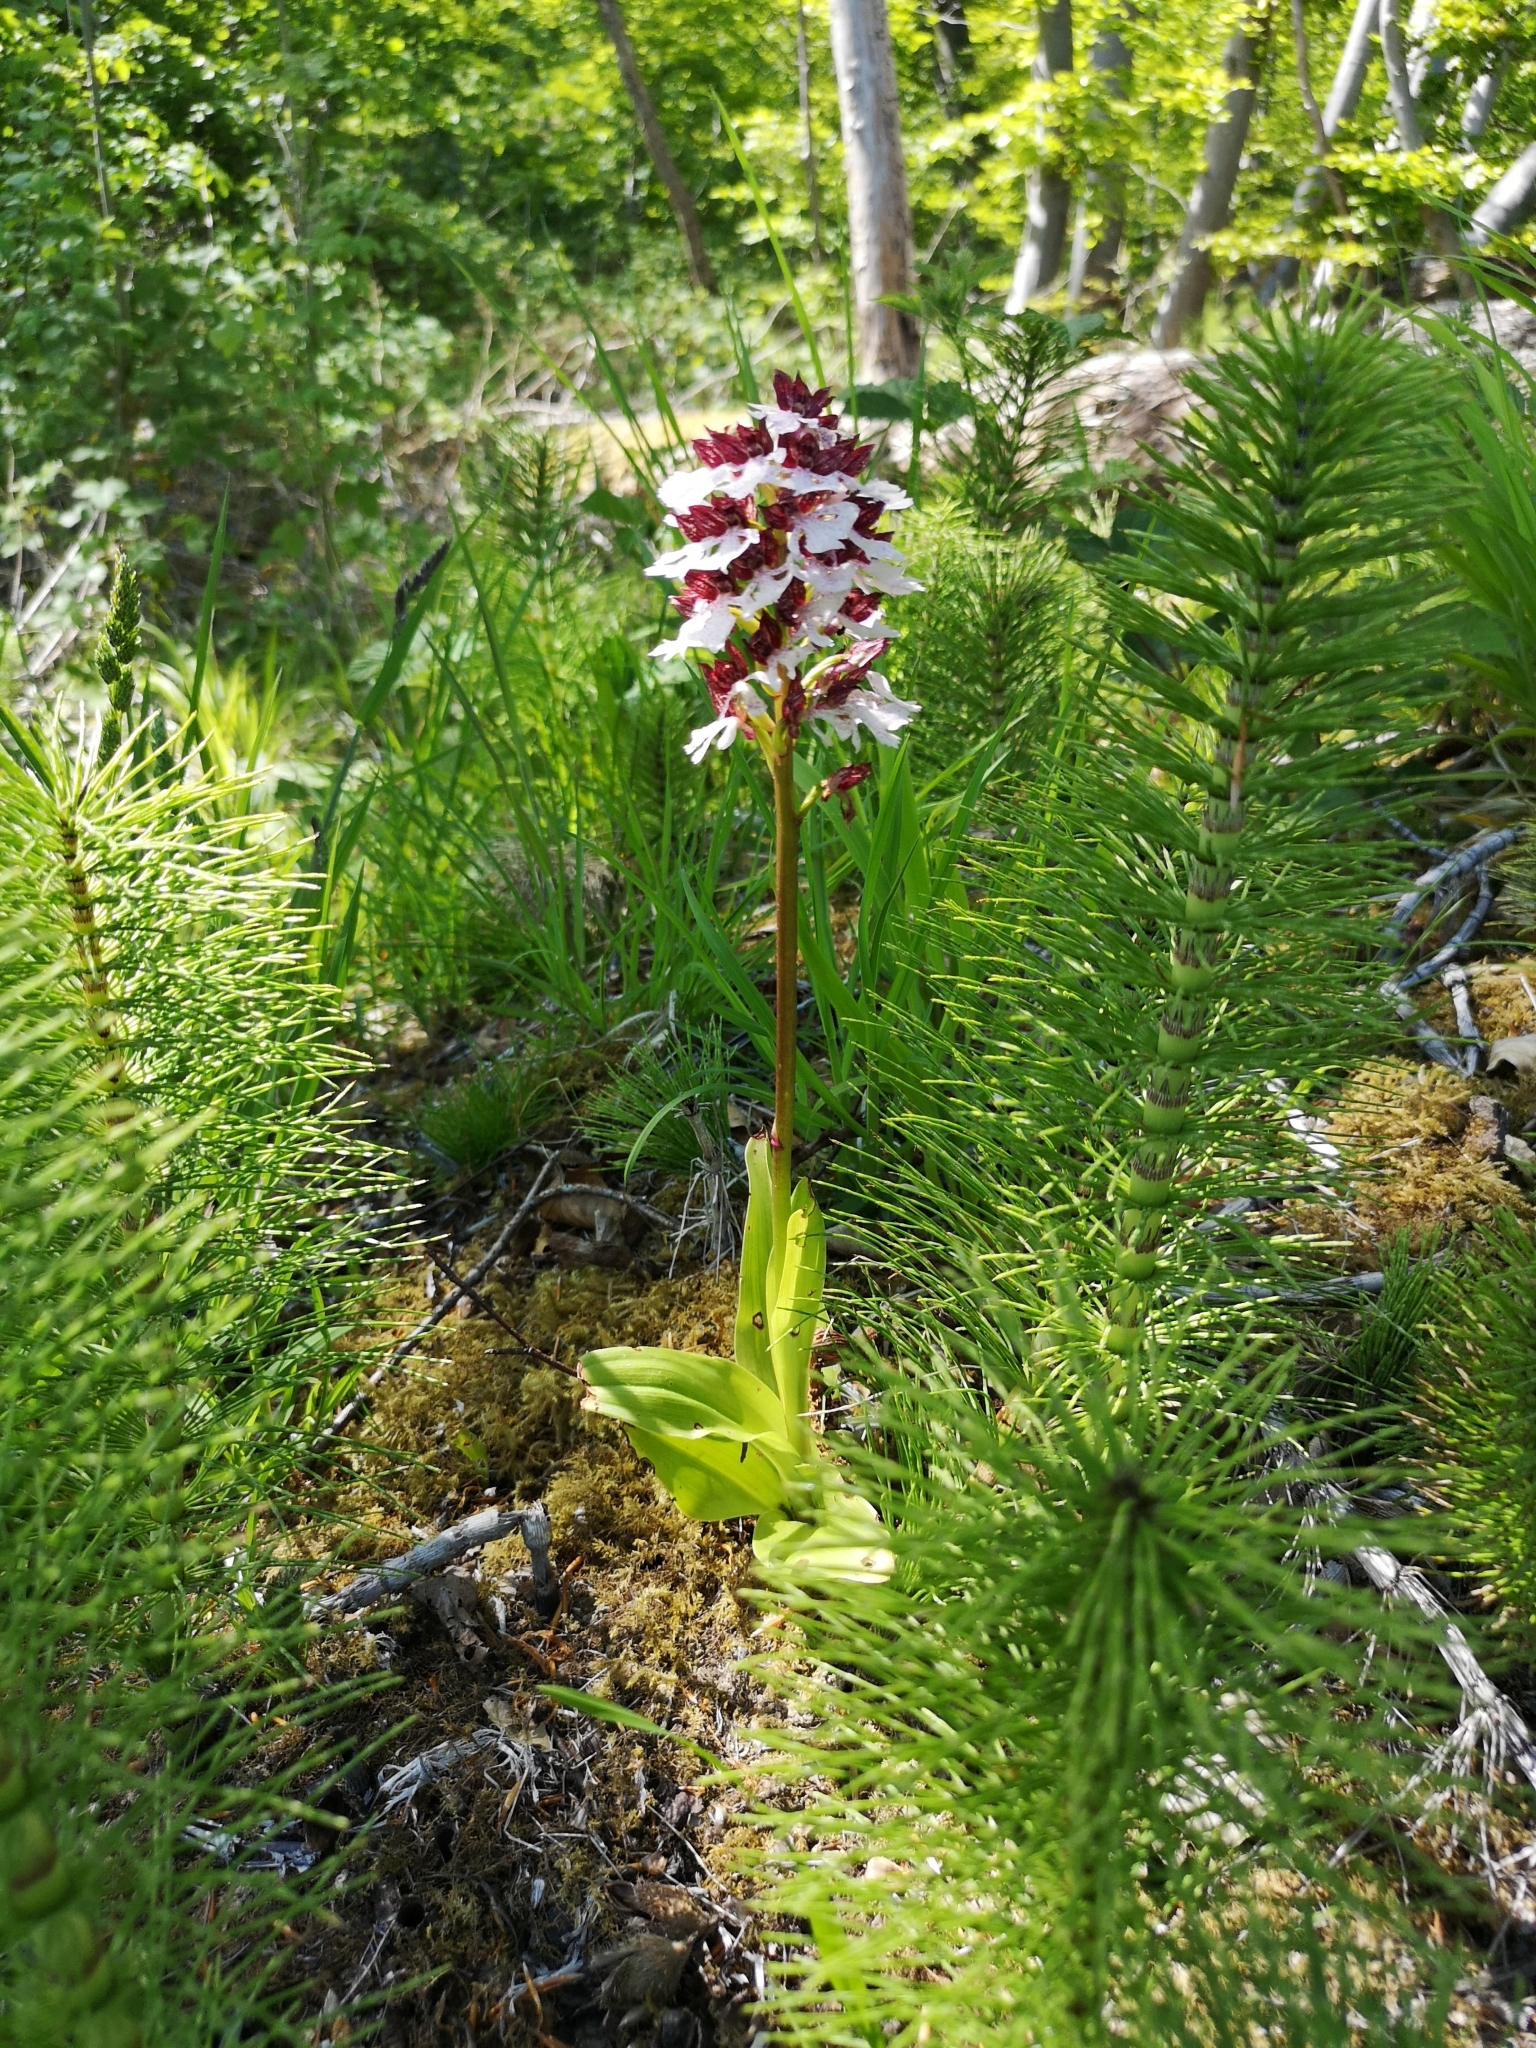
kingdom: Plantae
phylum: Tracheophyta
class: Liliopsida
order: Asparagales
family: Orchidaceae
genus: Orchis
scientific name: Orchis purpurea
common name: Lady orchid
